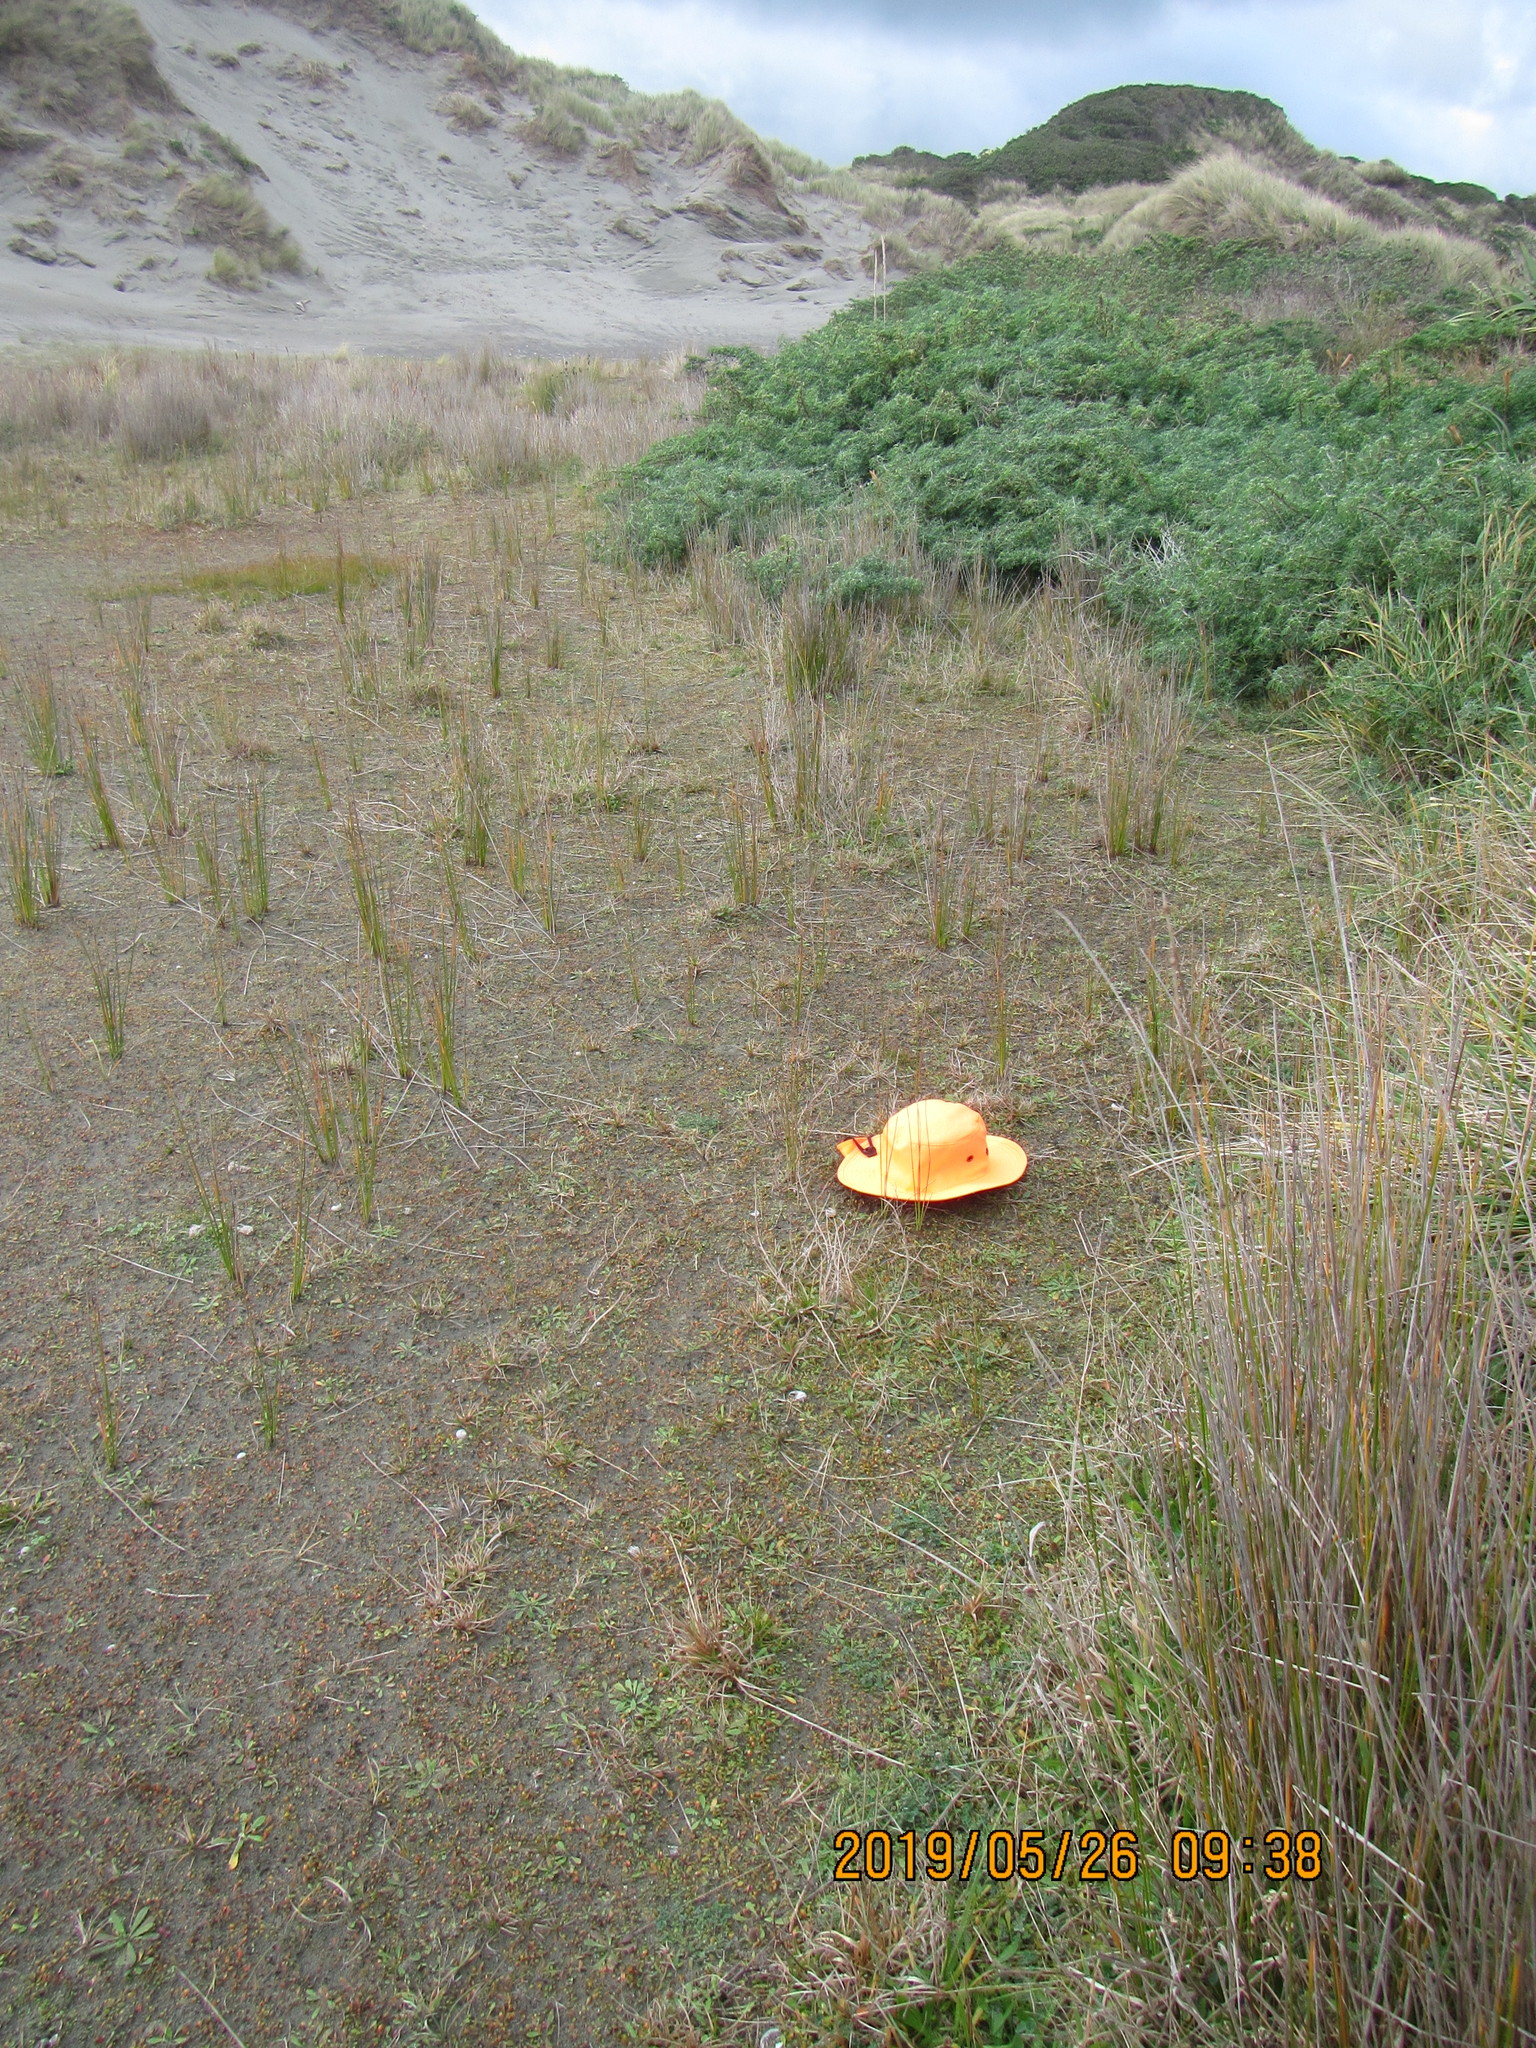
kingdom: Plantae
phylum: Tracheophyta
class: Magnoliopsida
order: Asterales
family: Goodeniaceae
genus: Goodenia
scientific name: Goodenia radicans
